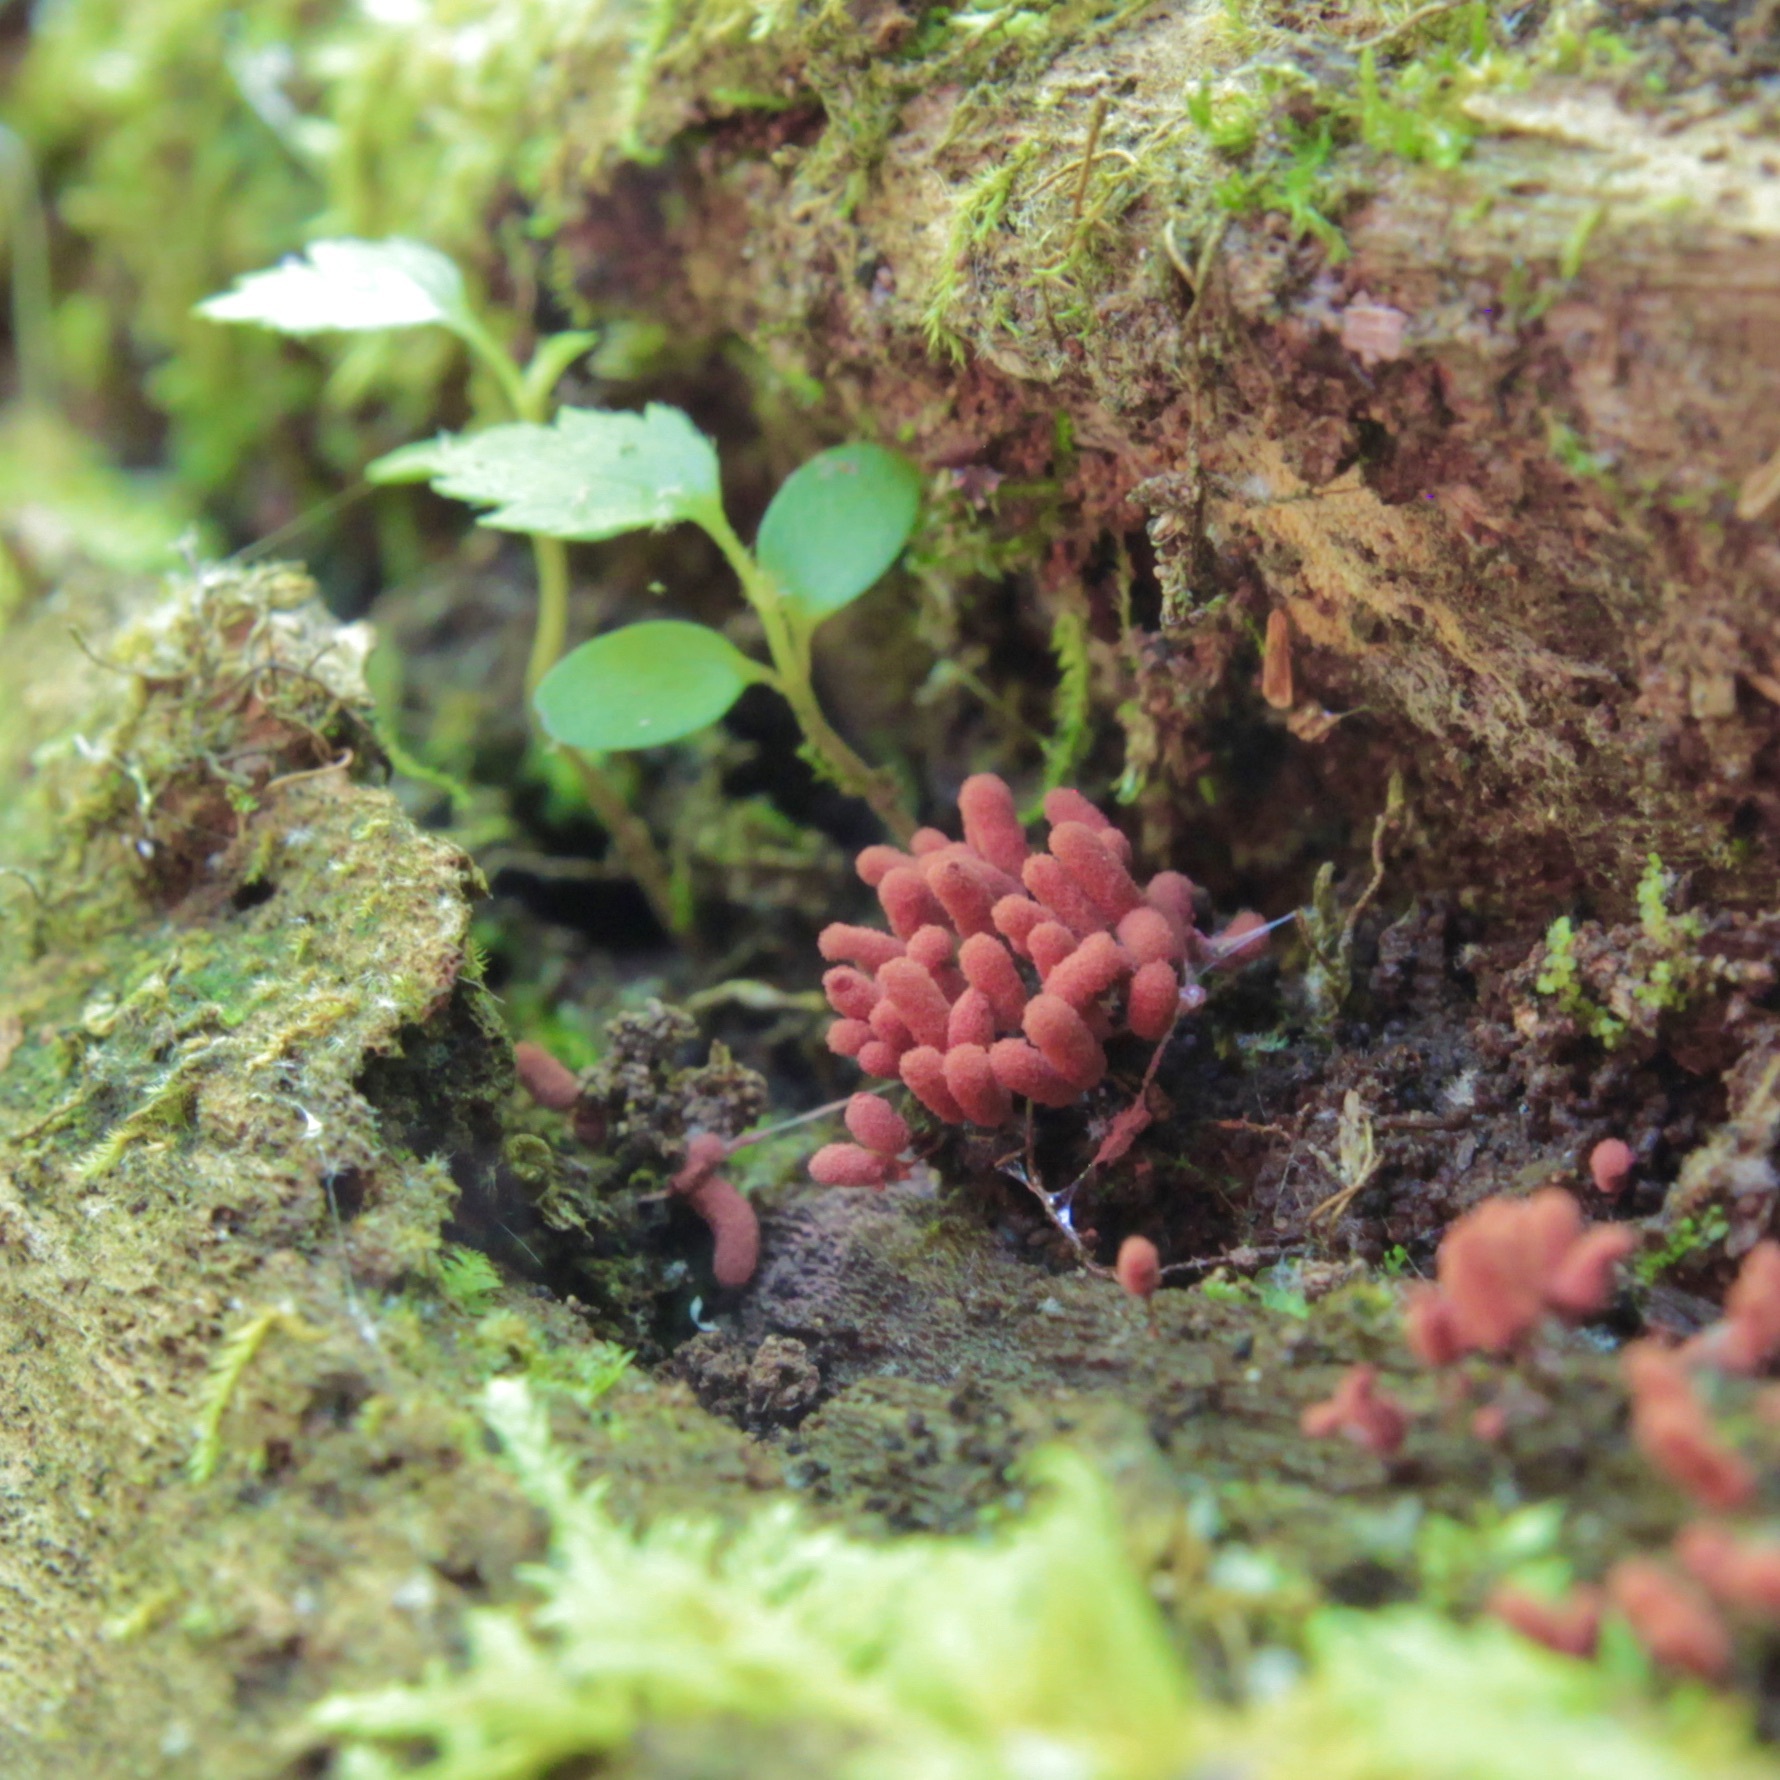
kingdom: Protozoa
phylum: Mycetozoa
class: Myxomycetes
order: Trichiales
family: Arcyriaceae
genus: Arcyria
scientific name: Arcyria denudata
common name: Carnival candy slime mold
